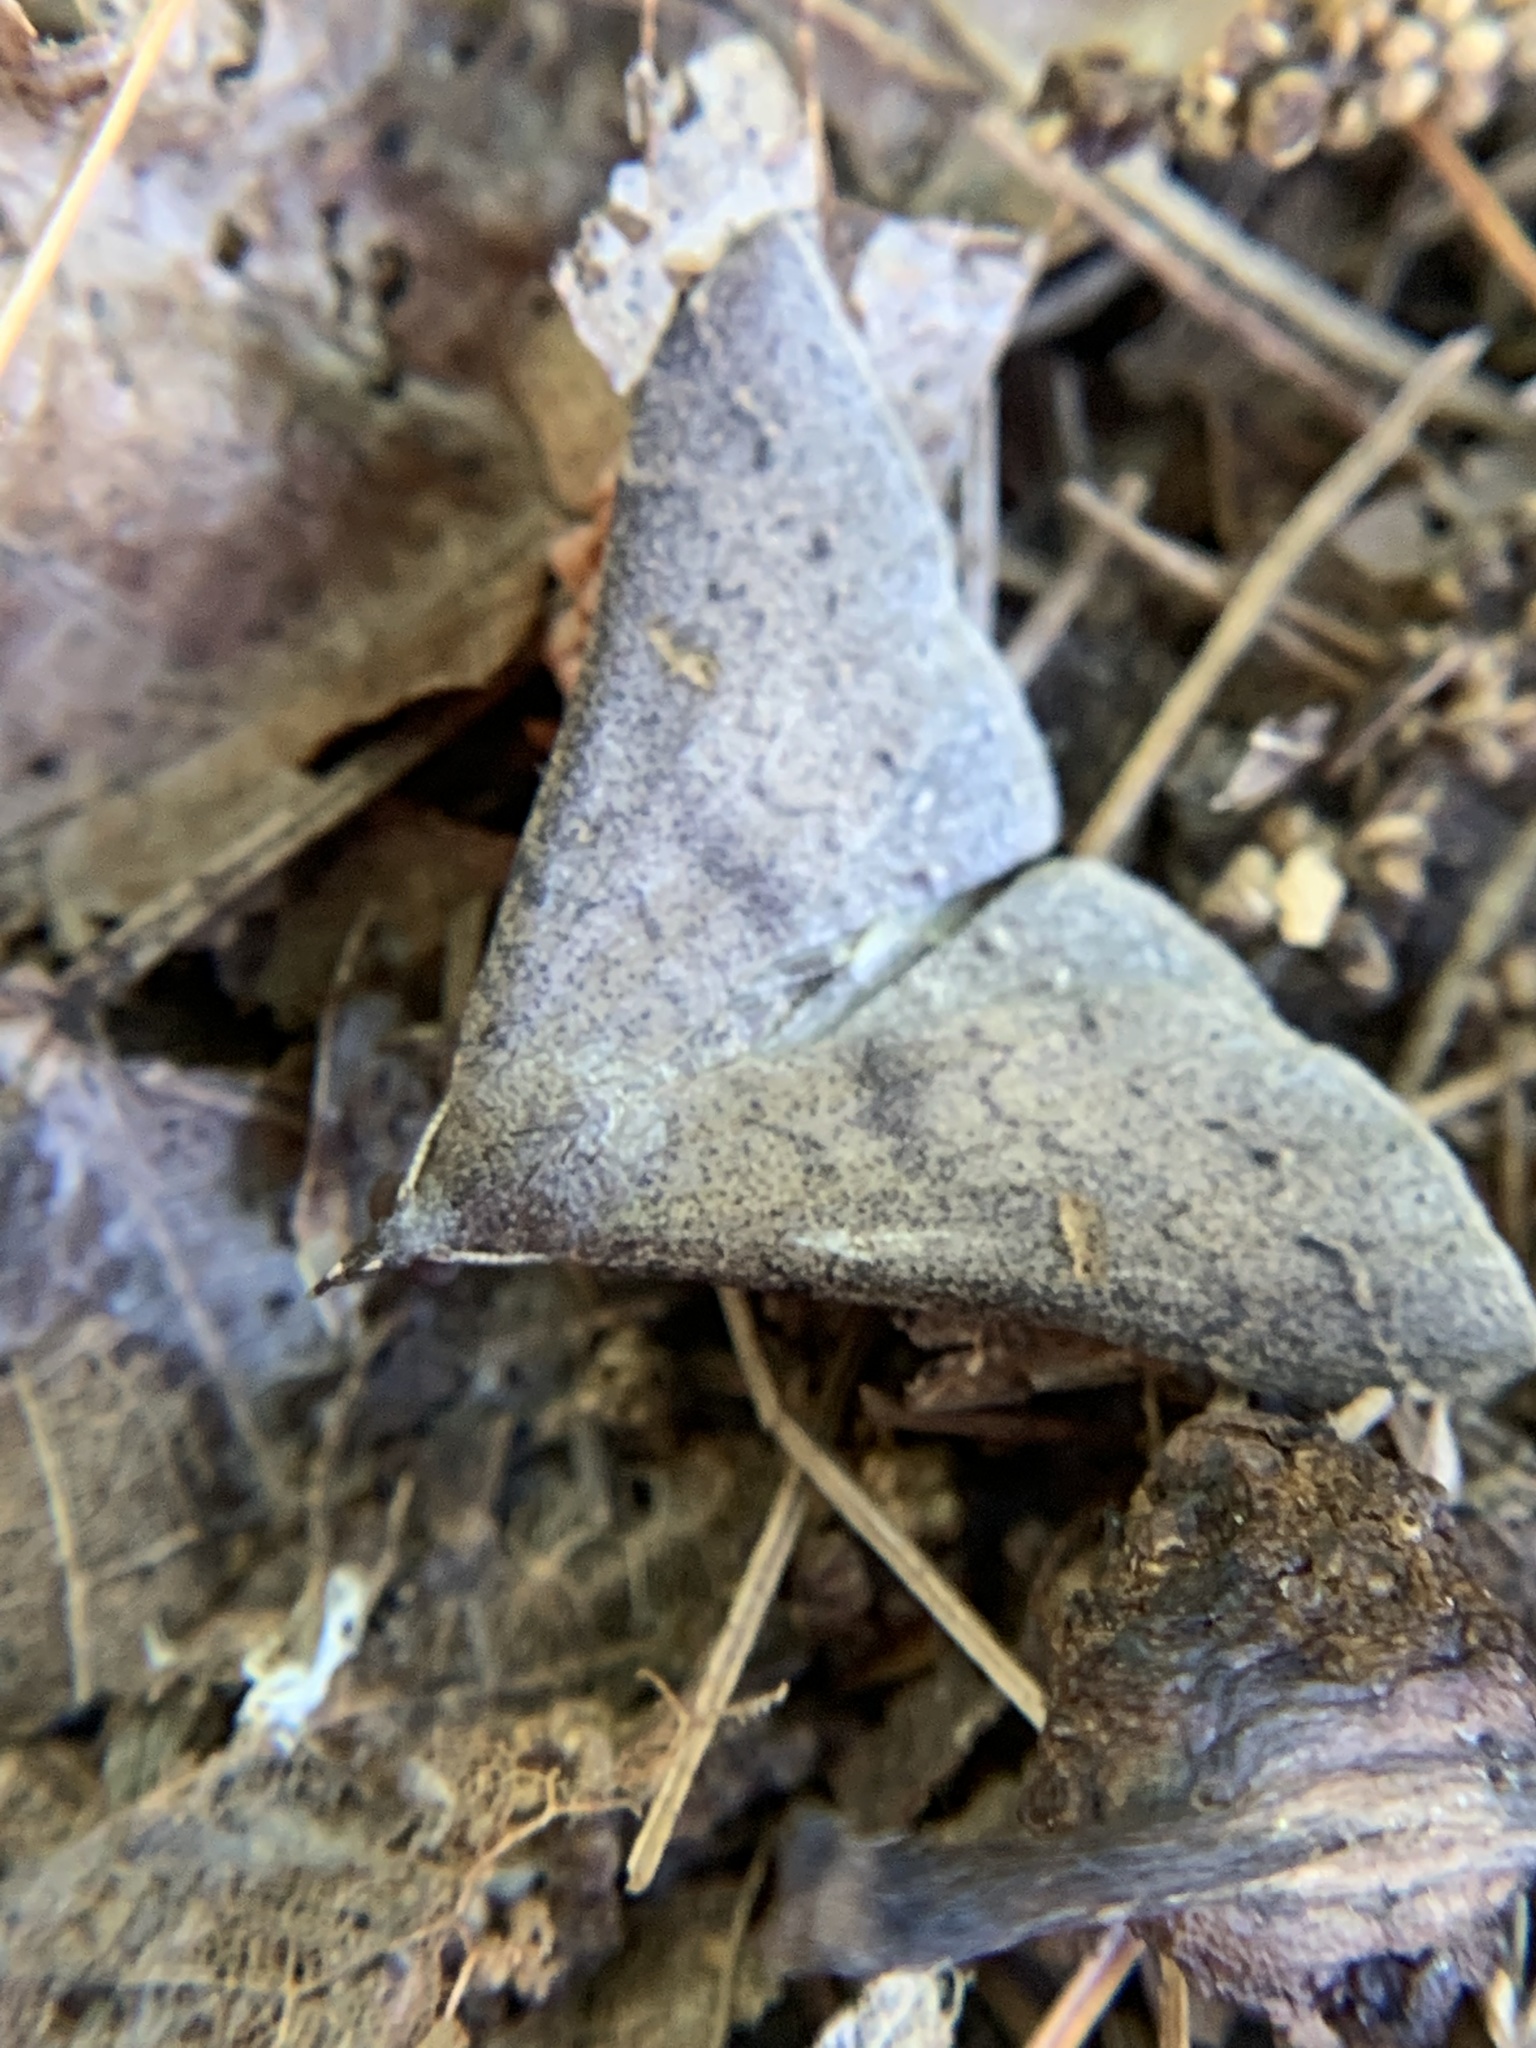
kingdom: Animalia
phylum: Arthropoda
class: Insecta
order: Lepidoptera
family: Erebidae
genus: Renia
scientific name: Renia adspergillus
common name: Speckled renia moth
